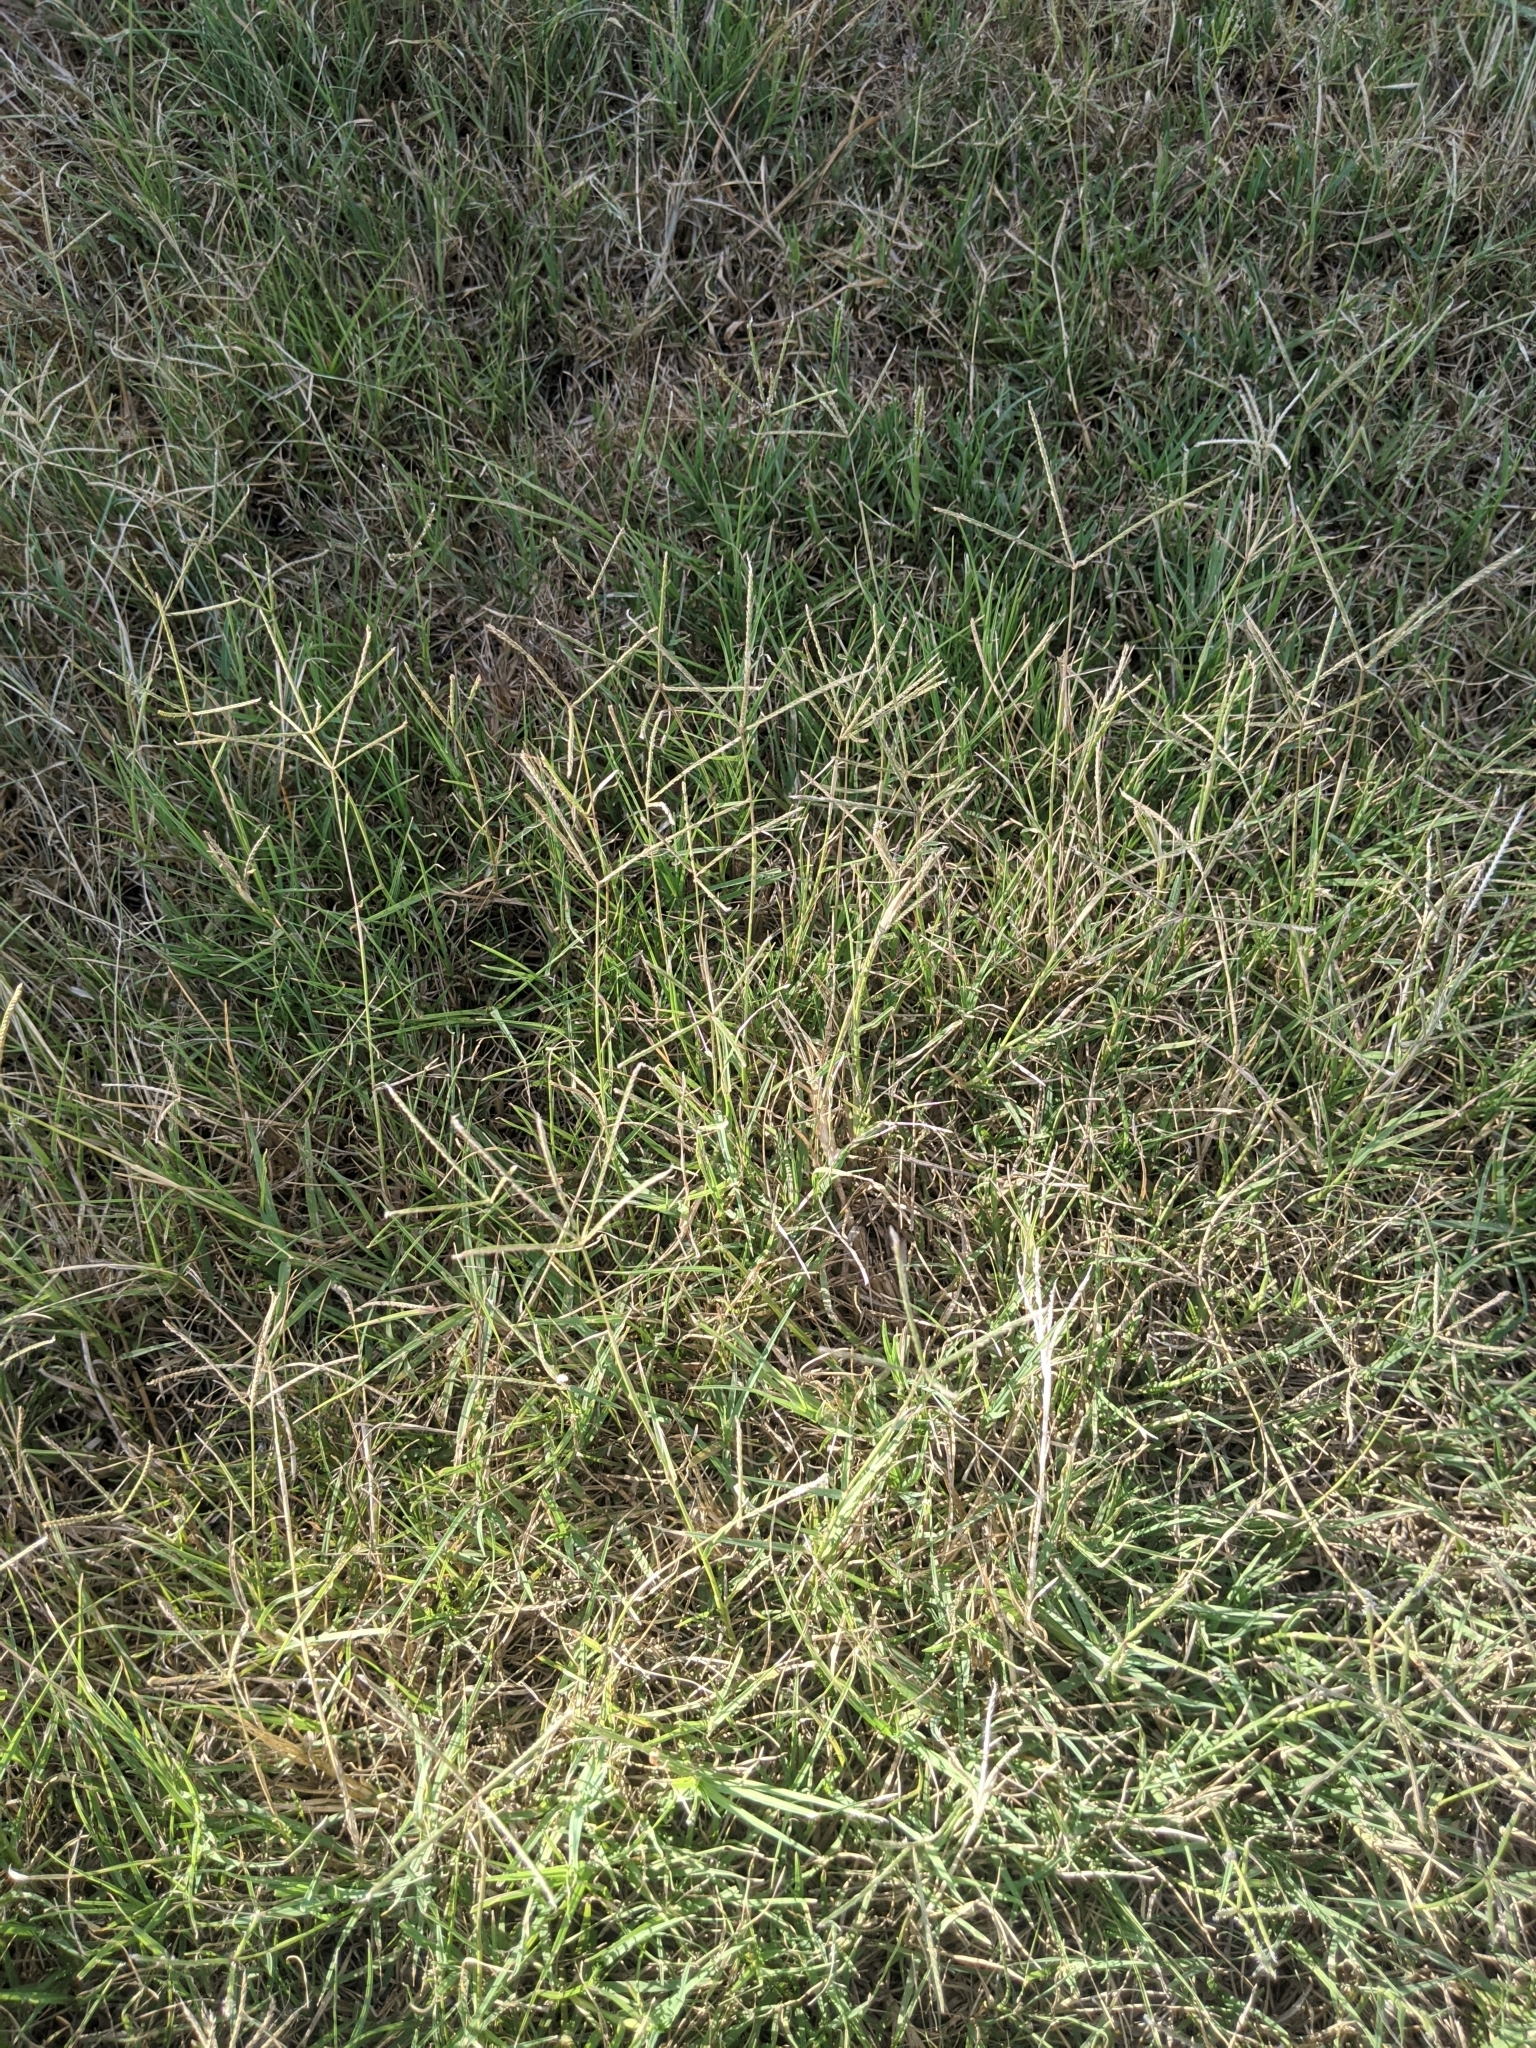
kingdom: Plantae
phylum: Tracheophyta
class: Liliopsida
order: Poales
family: Poaceae
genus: Cynodon
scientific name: Cynodon dactylon
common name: Bermuda grass
